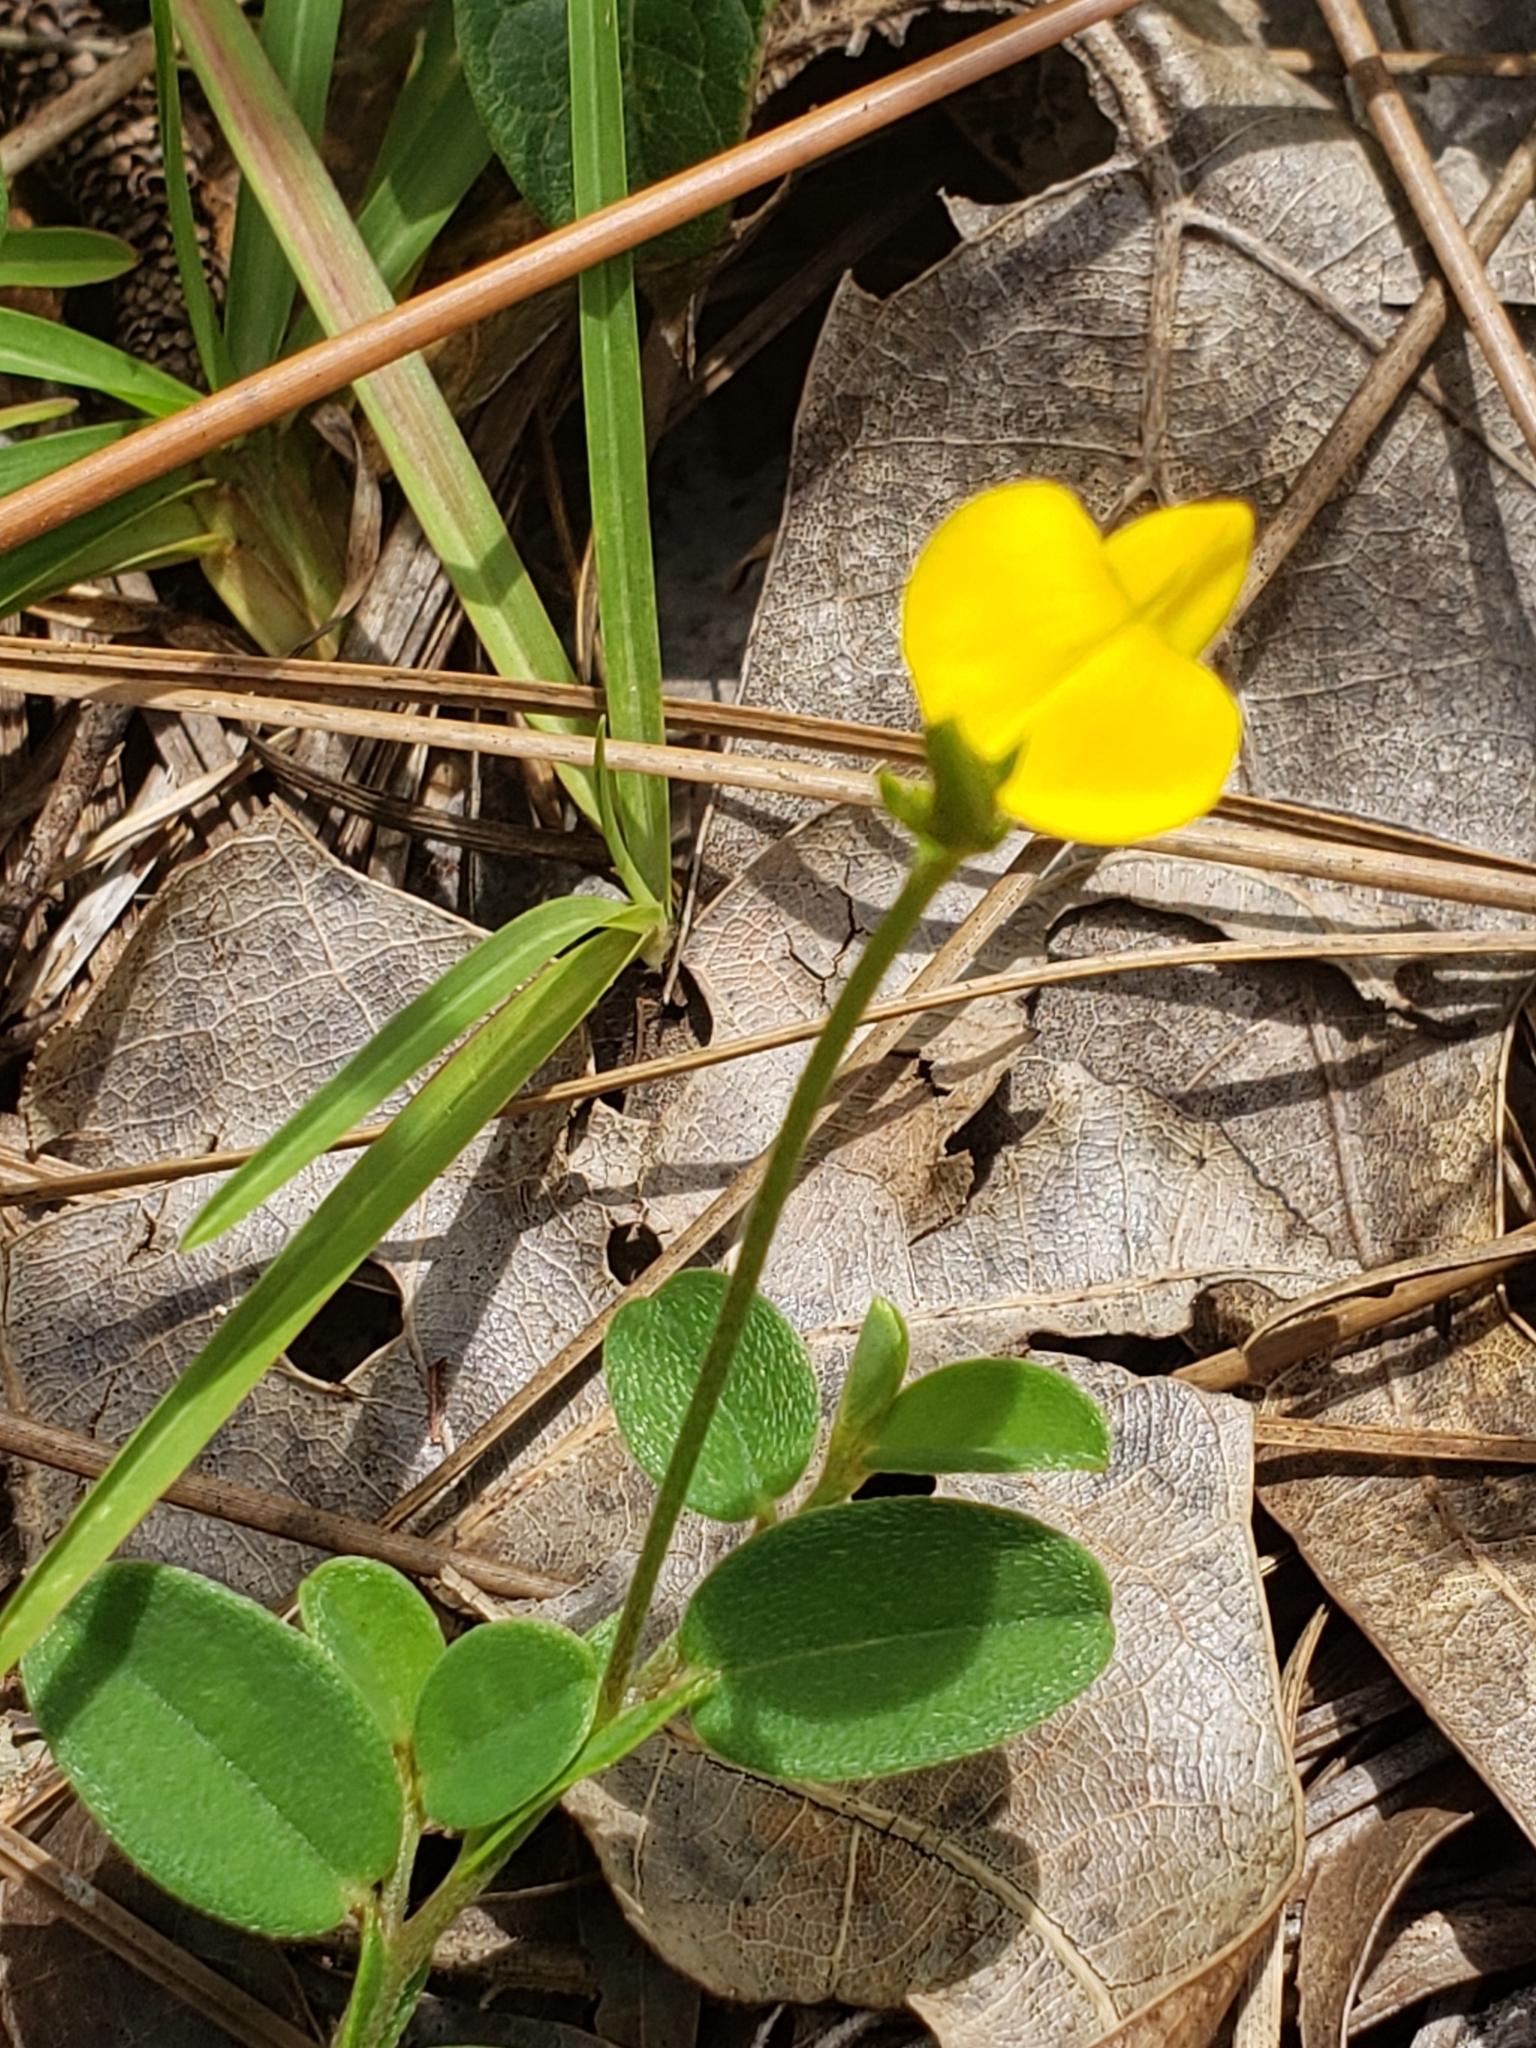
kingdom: Plantae
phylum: Tracheophyta
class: Magnoliopsida
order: Fabales
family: Fabaceae
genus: Crotalaria
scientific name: Crotalaria rotundifolia
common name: Prostrate rattlebox
